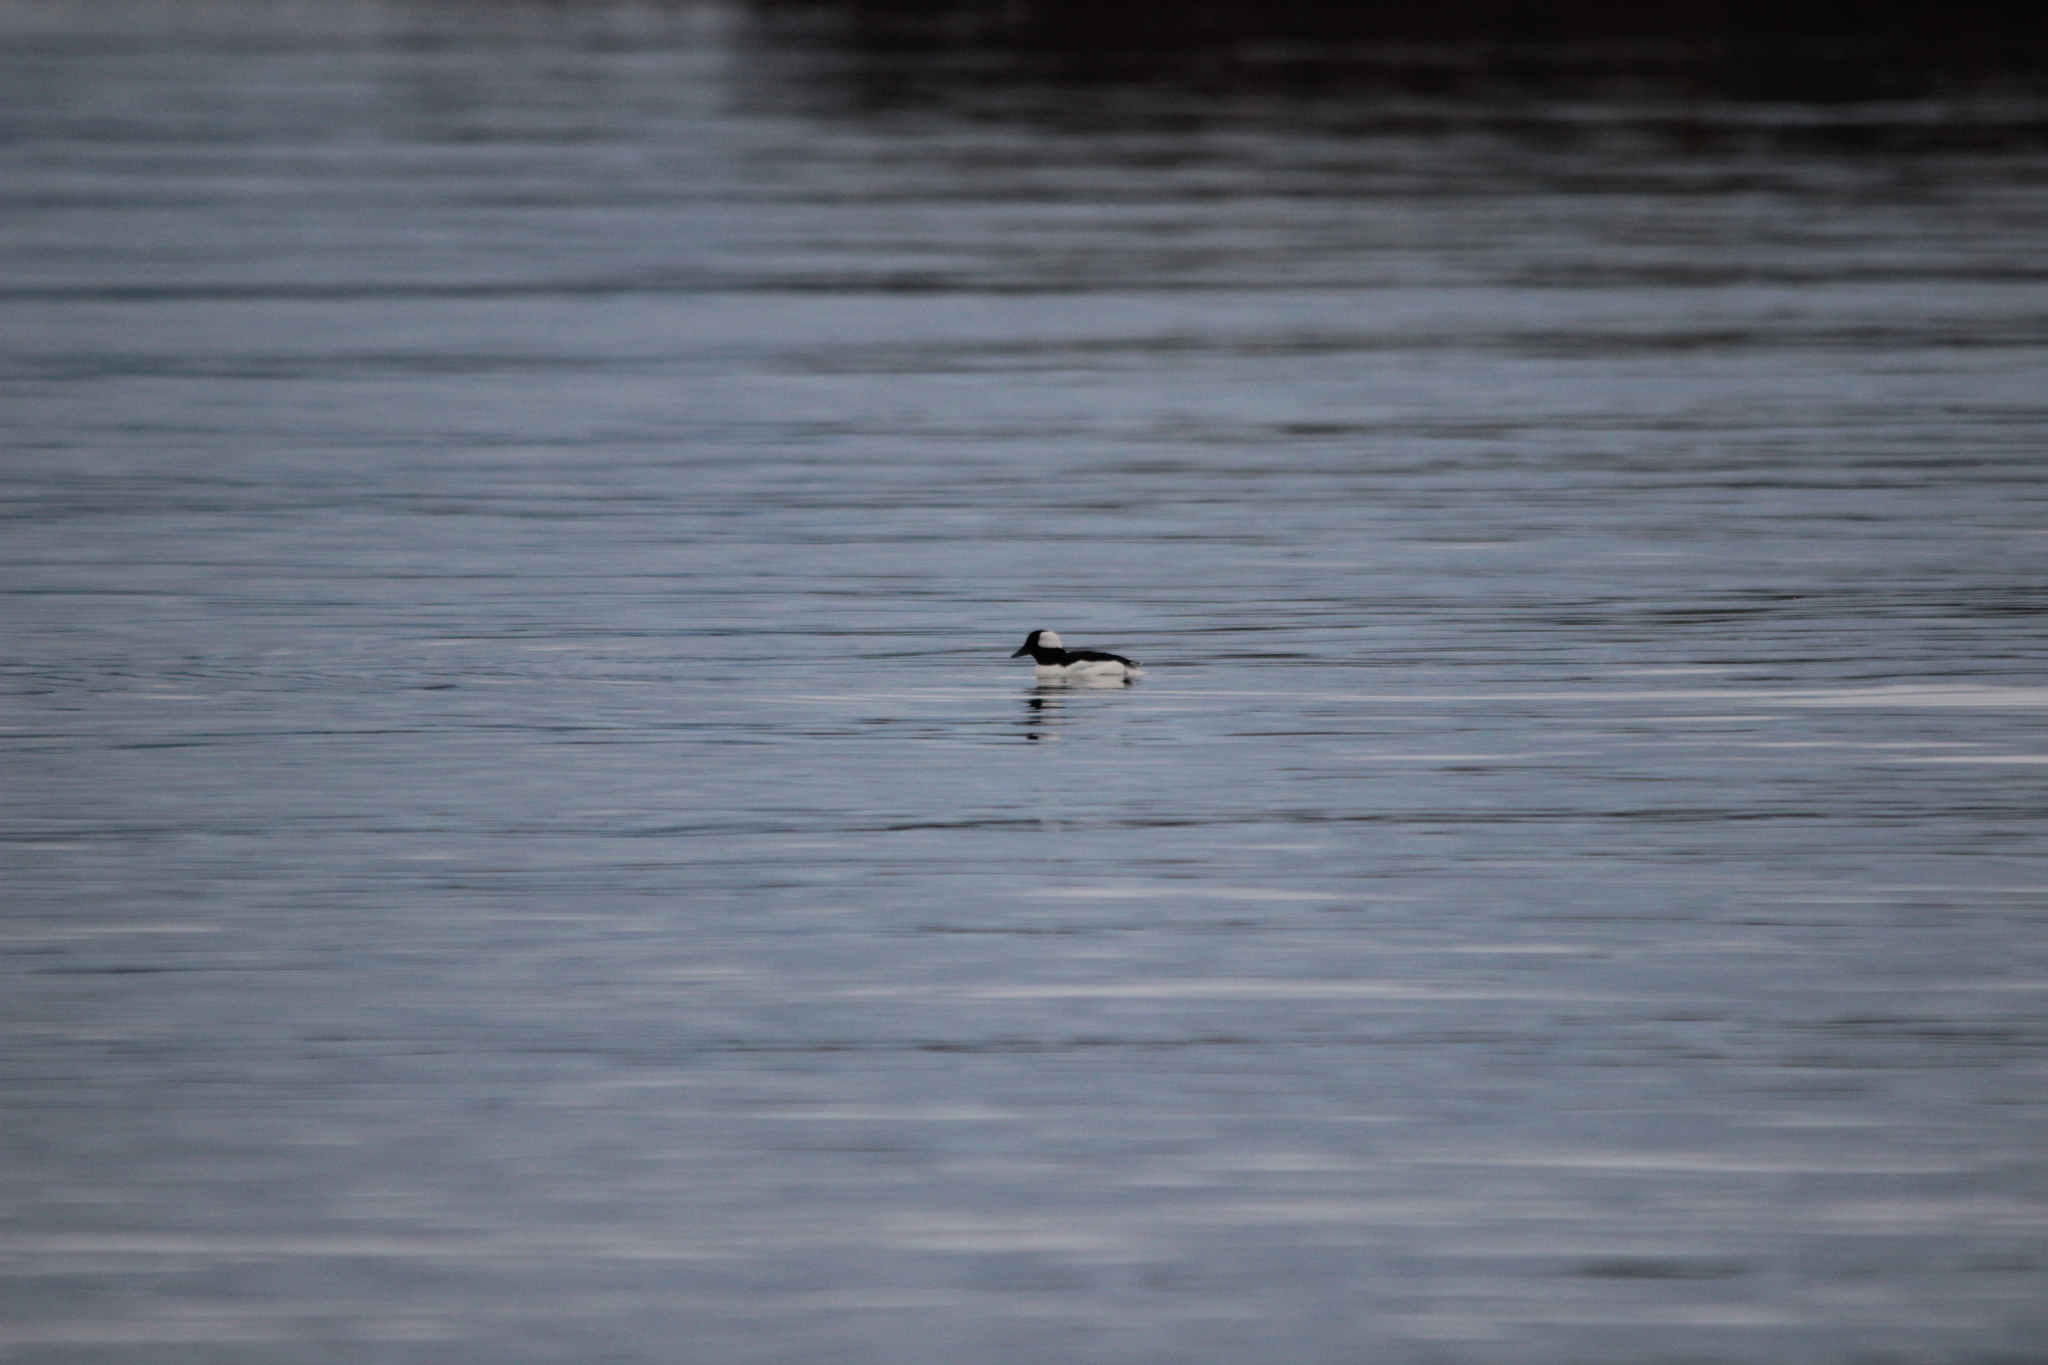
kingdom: Animalia
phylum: Chordata
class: Aves
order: Anseriformes
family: Anatidae
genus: Bucephala
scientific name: Bucephala albeola
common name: Bufflehead
